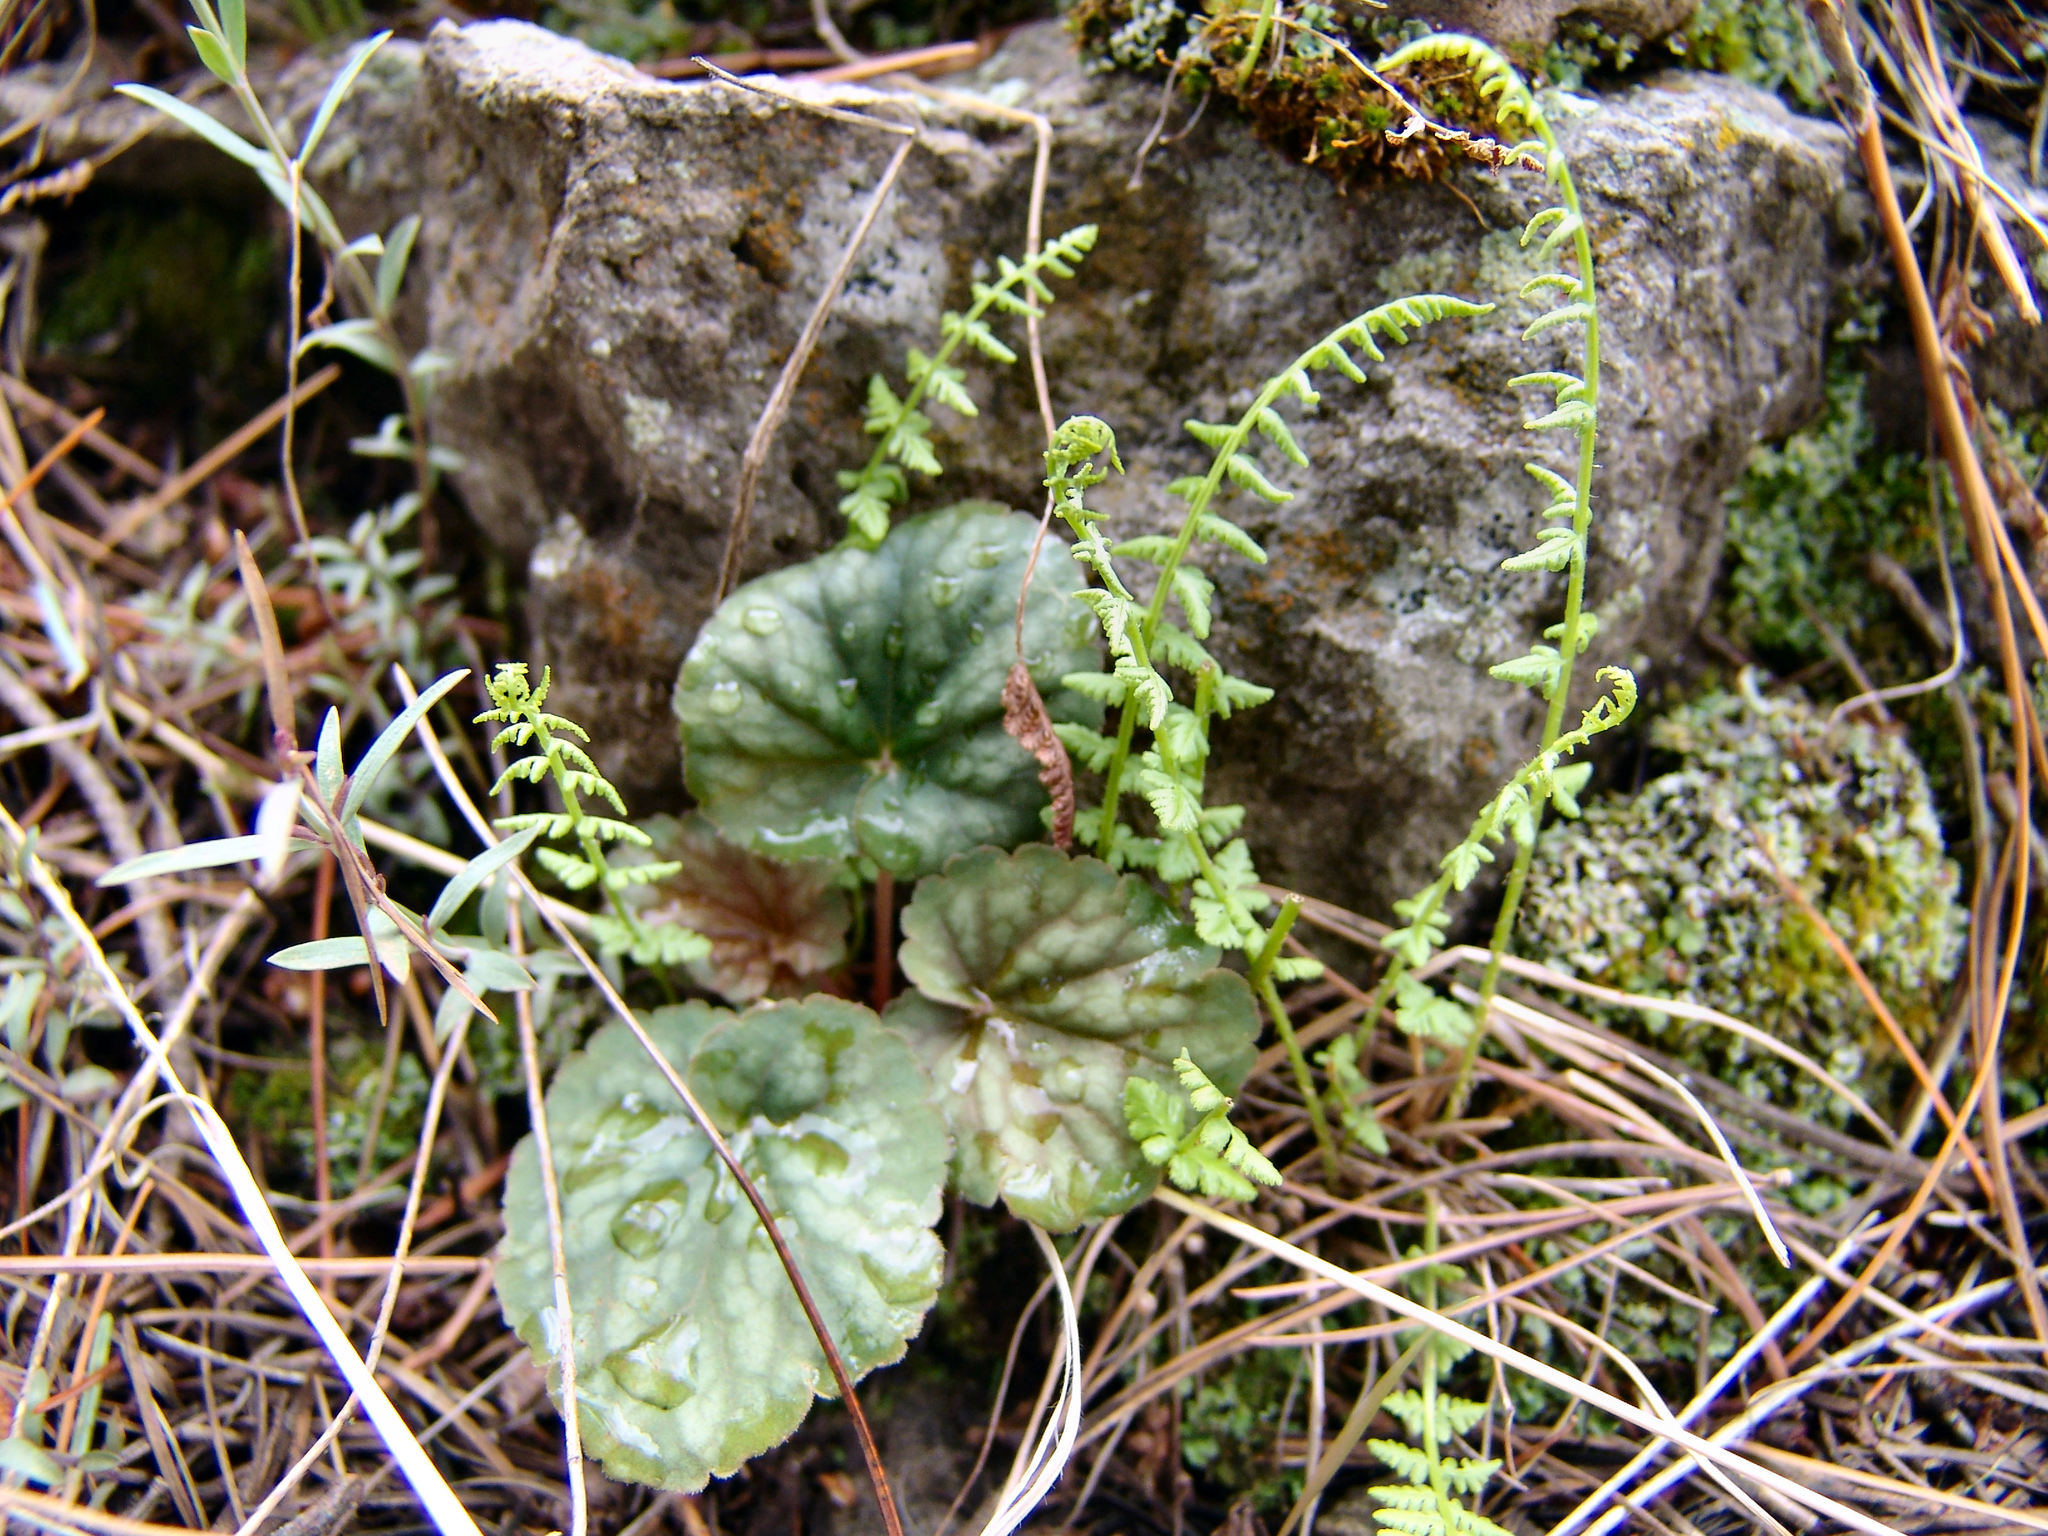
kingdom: Plantae
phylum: Tracheophyta
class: Magnoliopsida
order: Saxifragales
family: Saxifragaceae
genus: Heuchera
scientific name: Heuchera glomerulata
